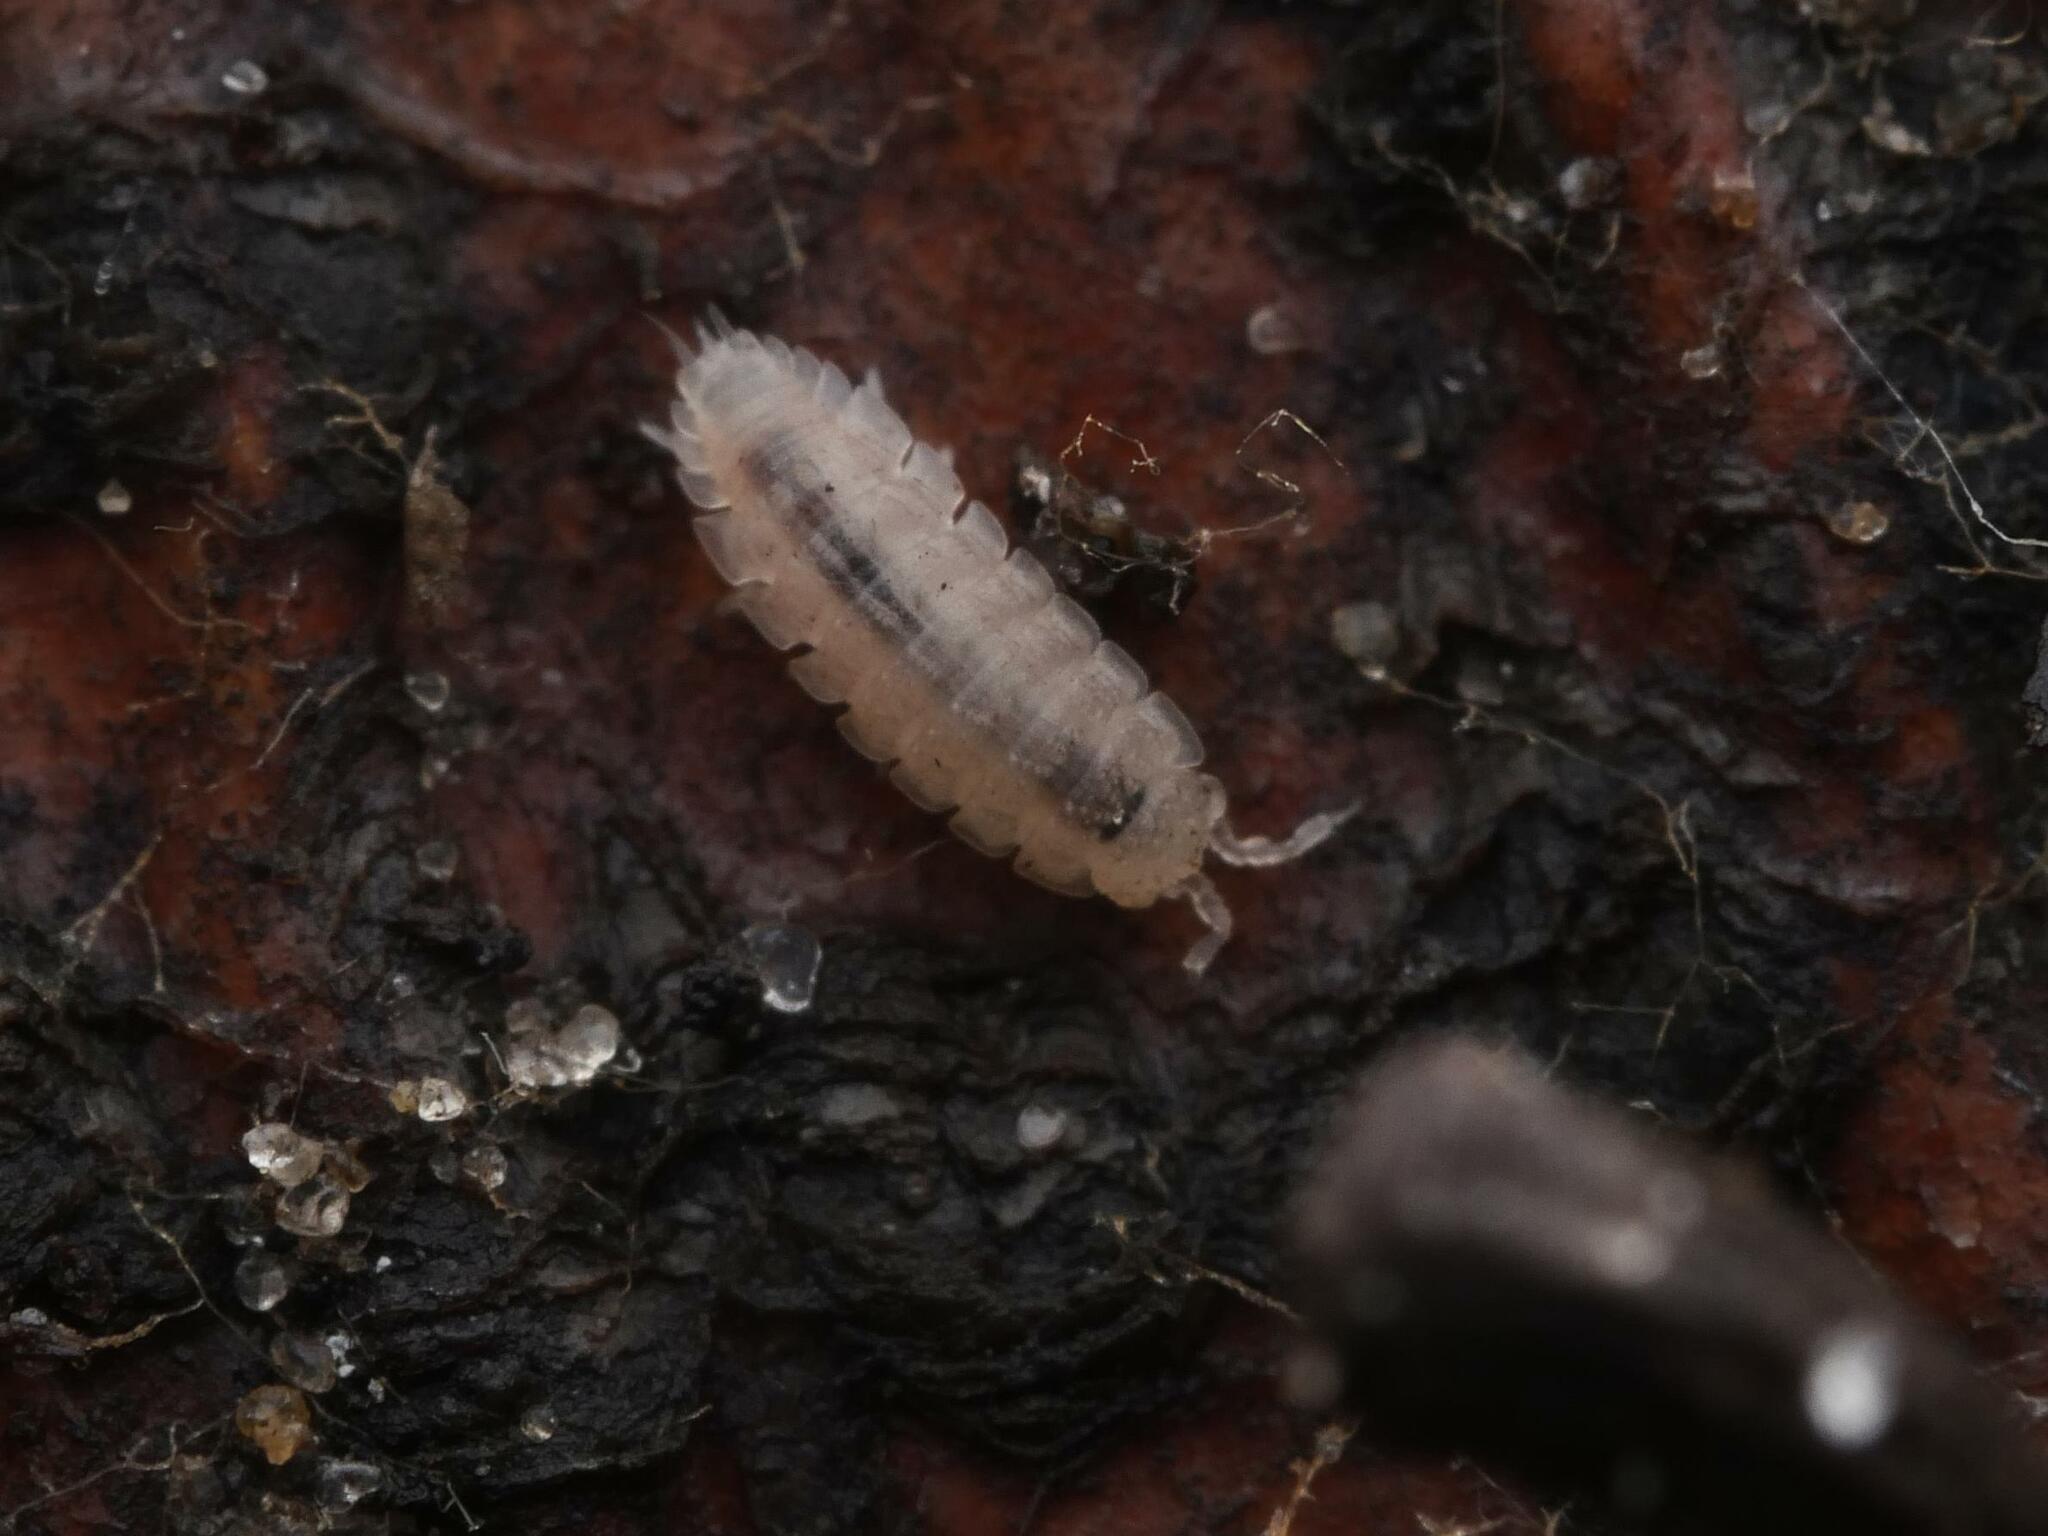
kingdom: Animalia
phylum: Arthropoda
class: Malacostraca
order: Isopoda
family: Trichoniscidae
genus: Haplophthalmus
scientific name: Haplophthalmus danicus
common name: Pillbug
